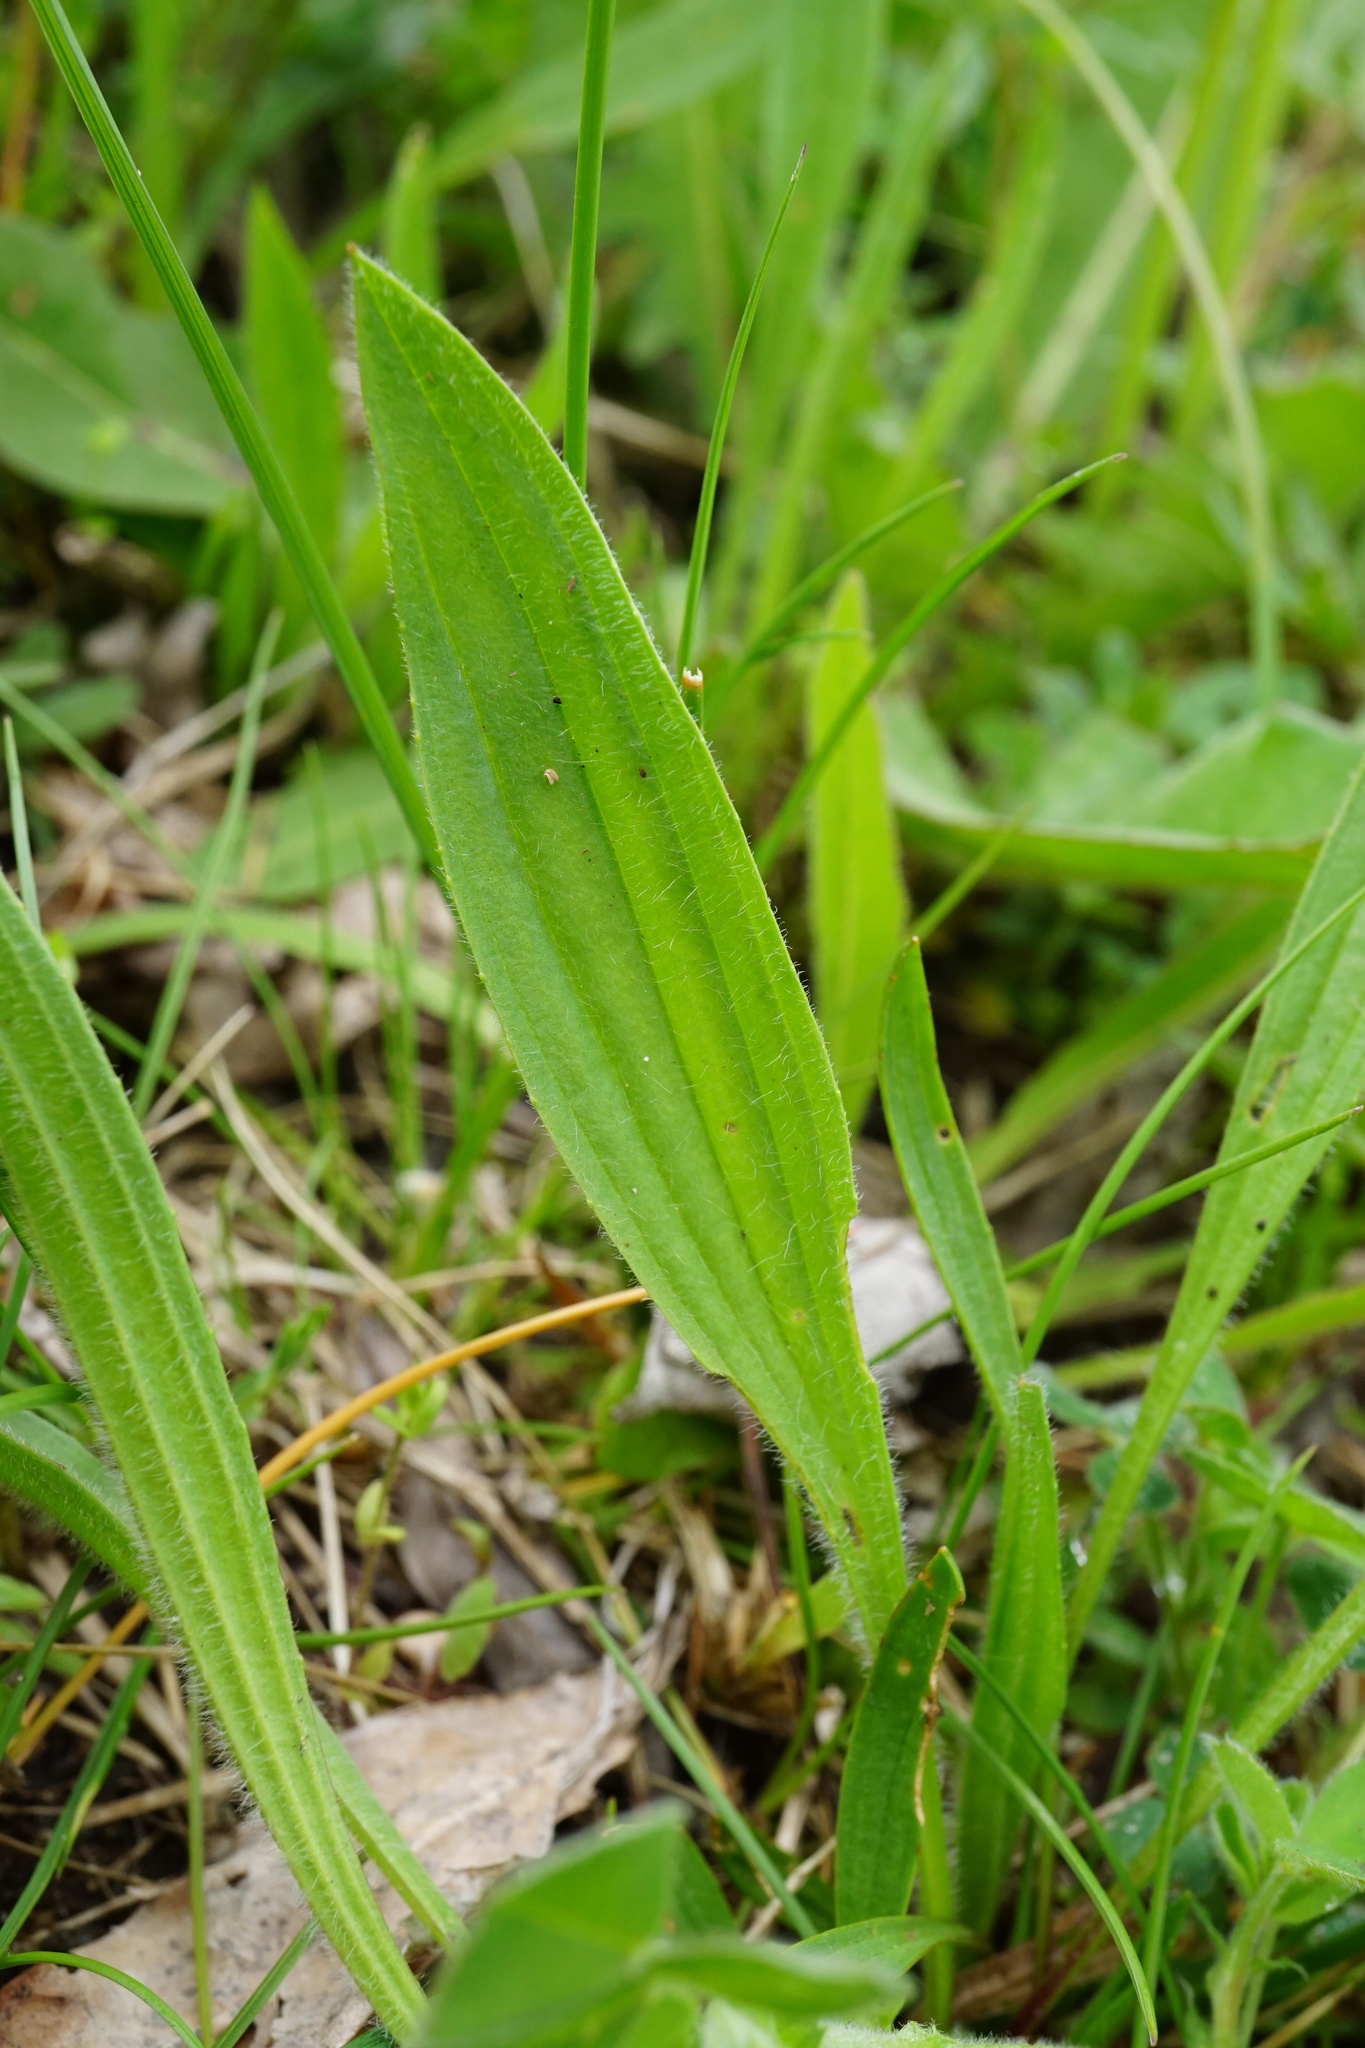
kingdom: Plantae
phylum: Tracheophyta
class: Magnoliopsida
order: Lamiales
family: Plantaginaceae
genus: Plantago
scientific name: Plantago lanceolata
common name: Ribwort plantain
